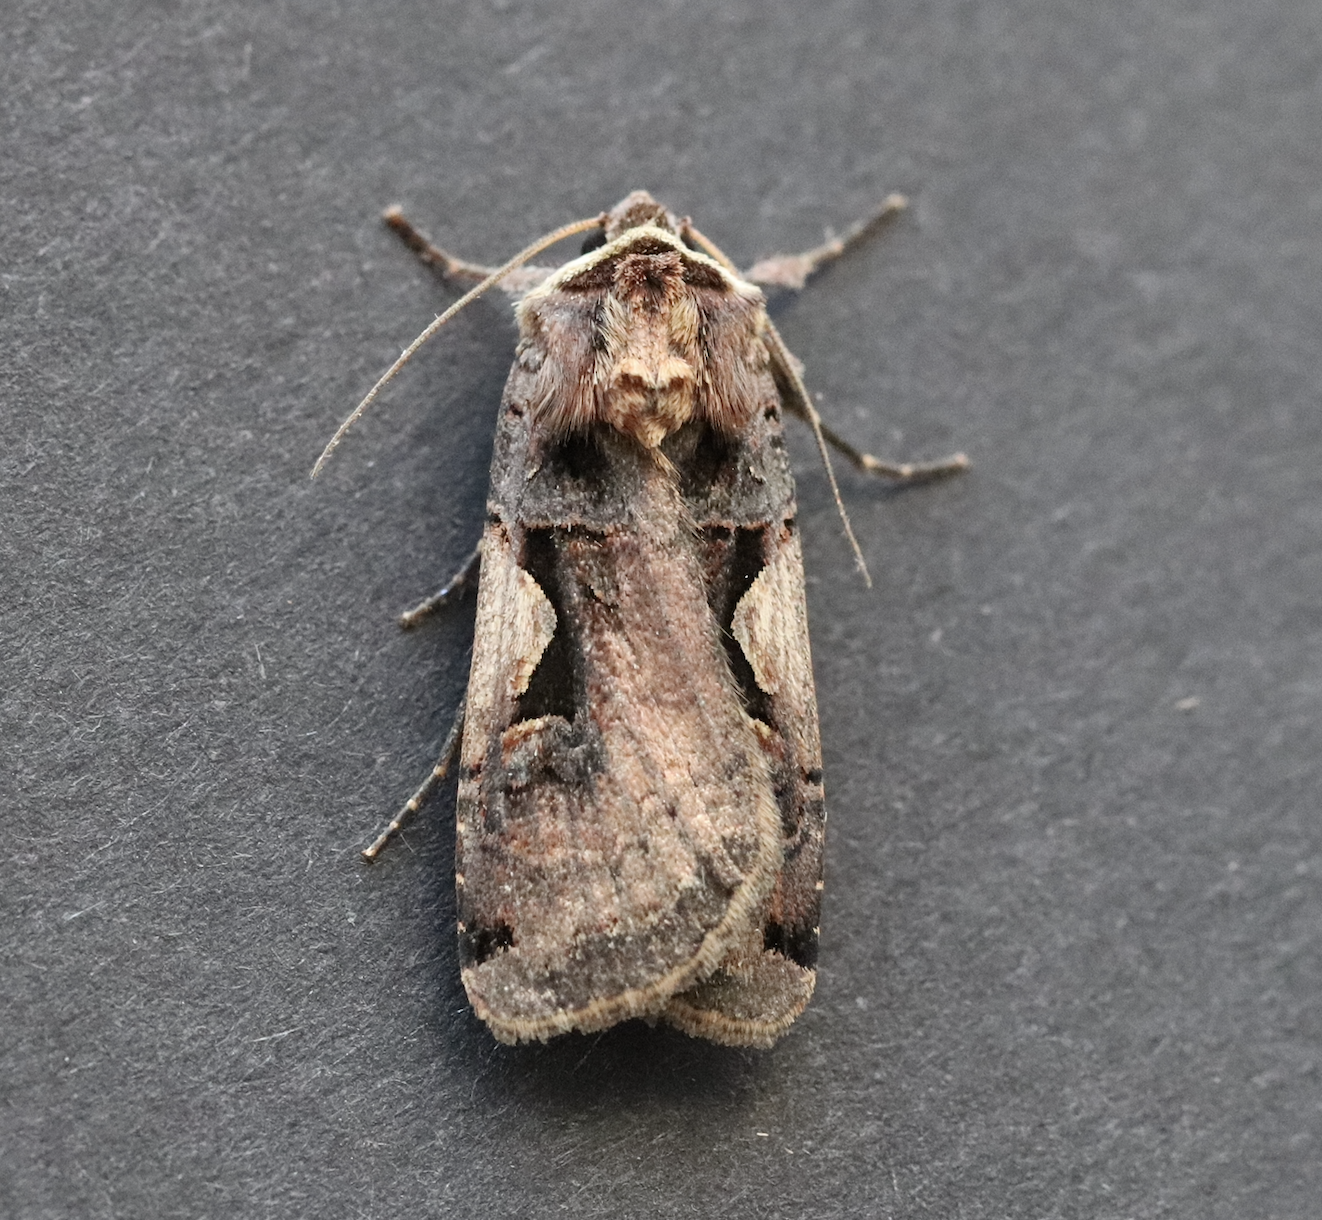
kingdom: Animalia
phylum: Arthropoda
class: Insecta
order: Lepidoptera
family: Noctuidae
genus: Xestia
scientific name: Xestia c-nigrum
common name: Setaceous hebrew character
